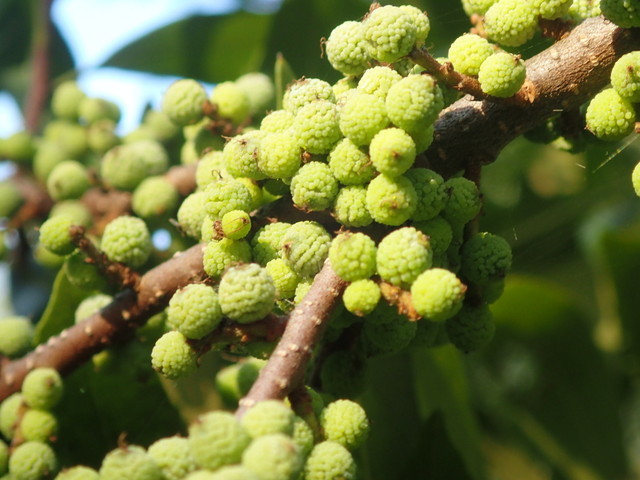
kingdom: Plantae
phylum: Tracheophyta
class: Magnoliopsida
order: Fagales
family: Myricaceae
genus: Morella
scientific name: Morella cerifera
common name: Wax myrtle
